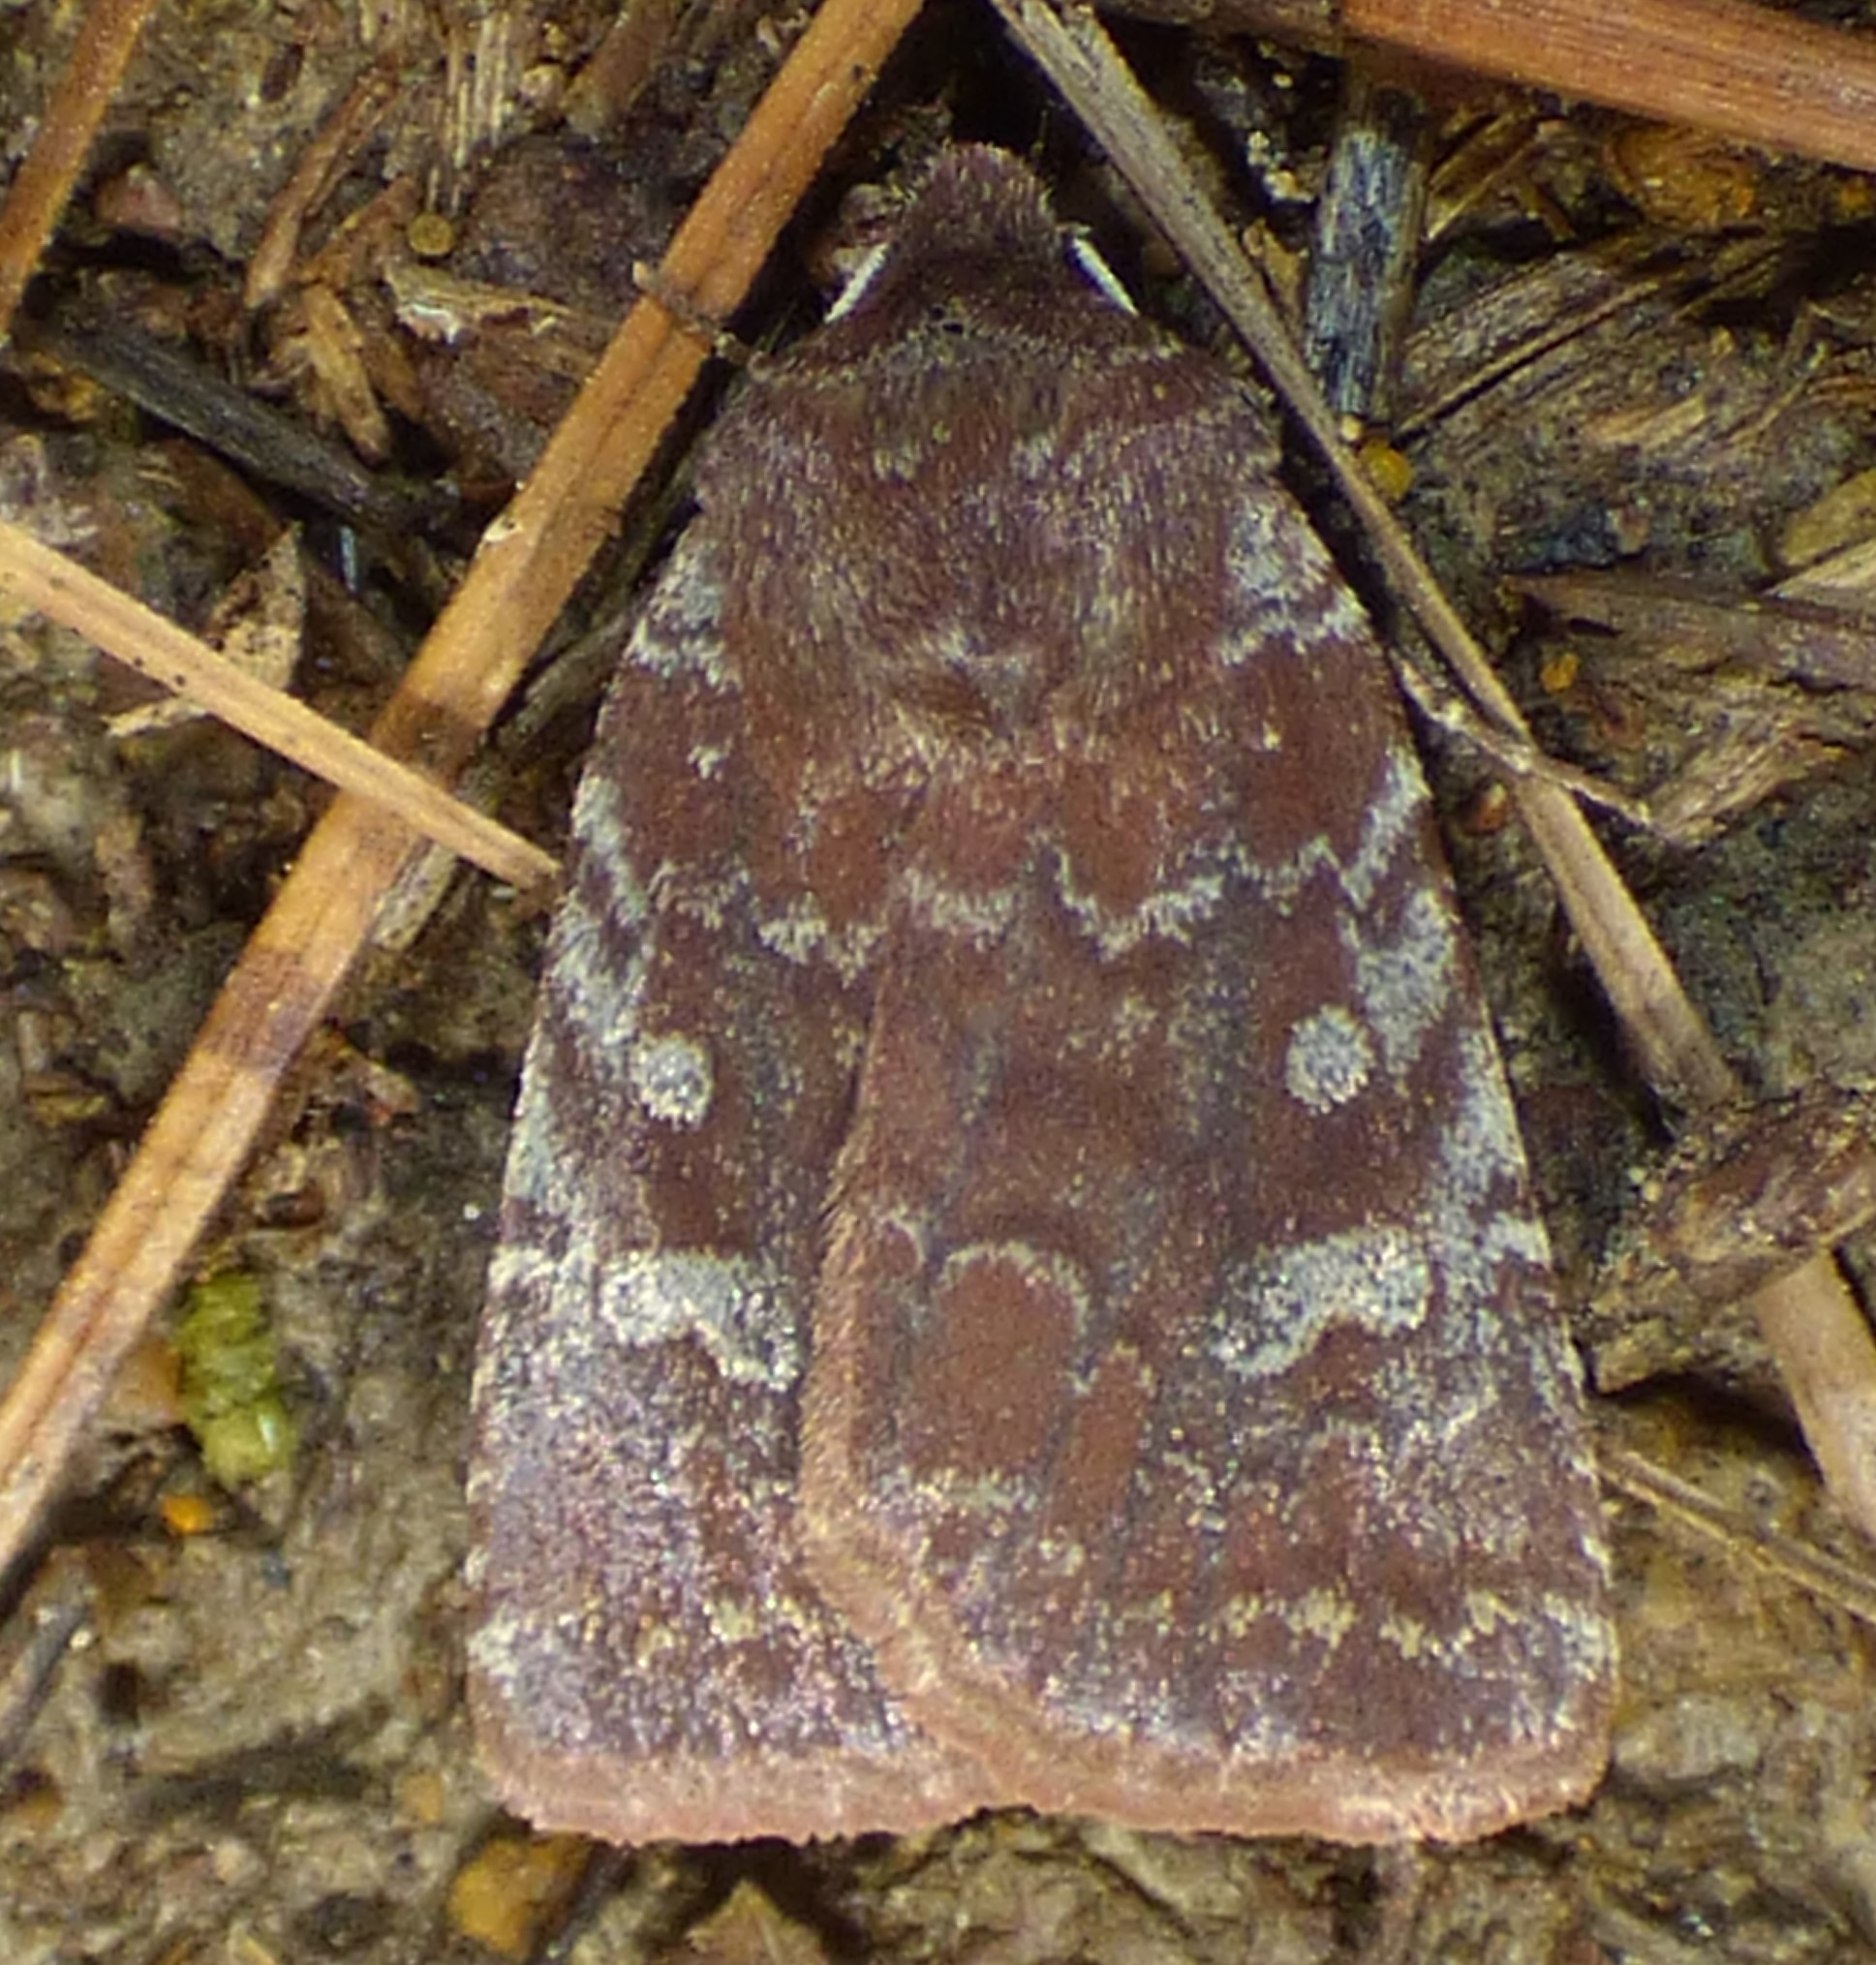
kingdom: Animalia
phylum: Arthropoda
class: Insecta
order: Lepidoptera
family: Noctuidae
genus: Cerastis
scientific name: Cerastis tenebrifera
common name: Reddish speckled dart
